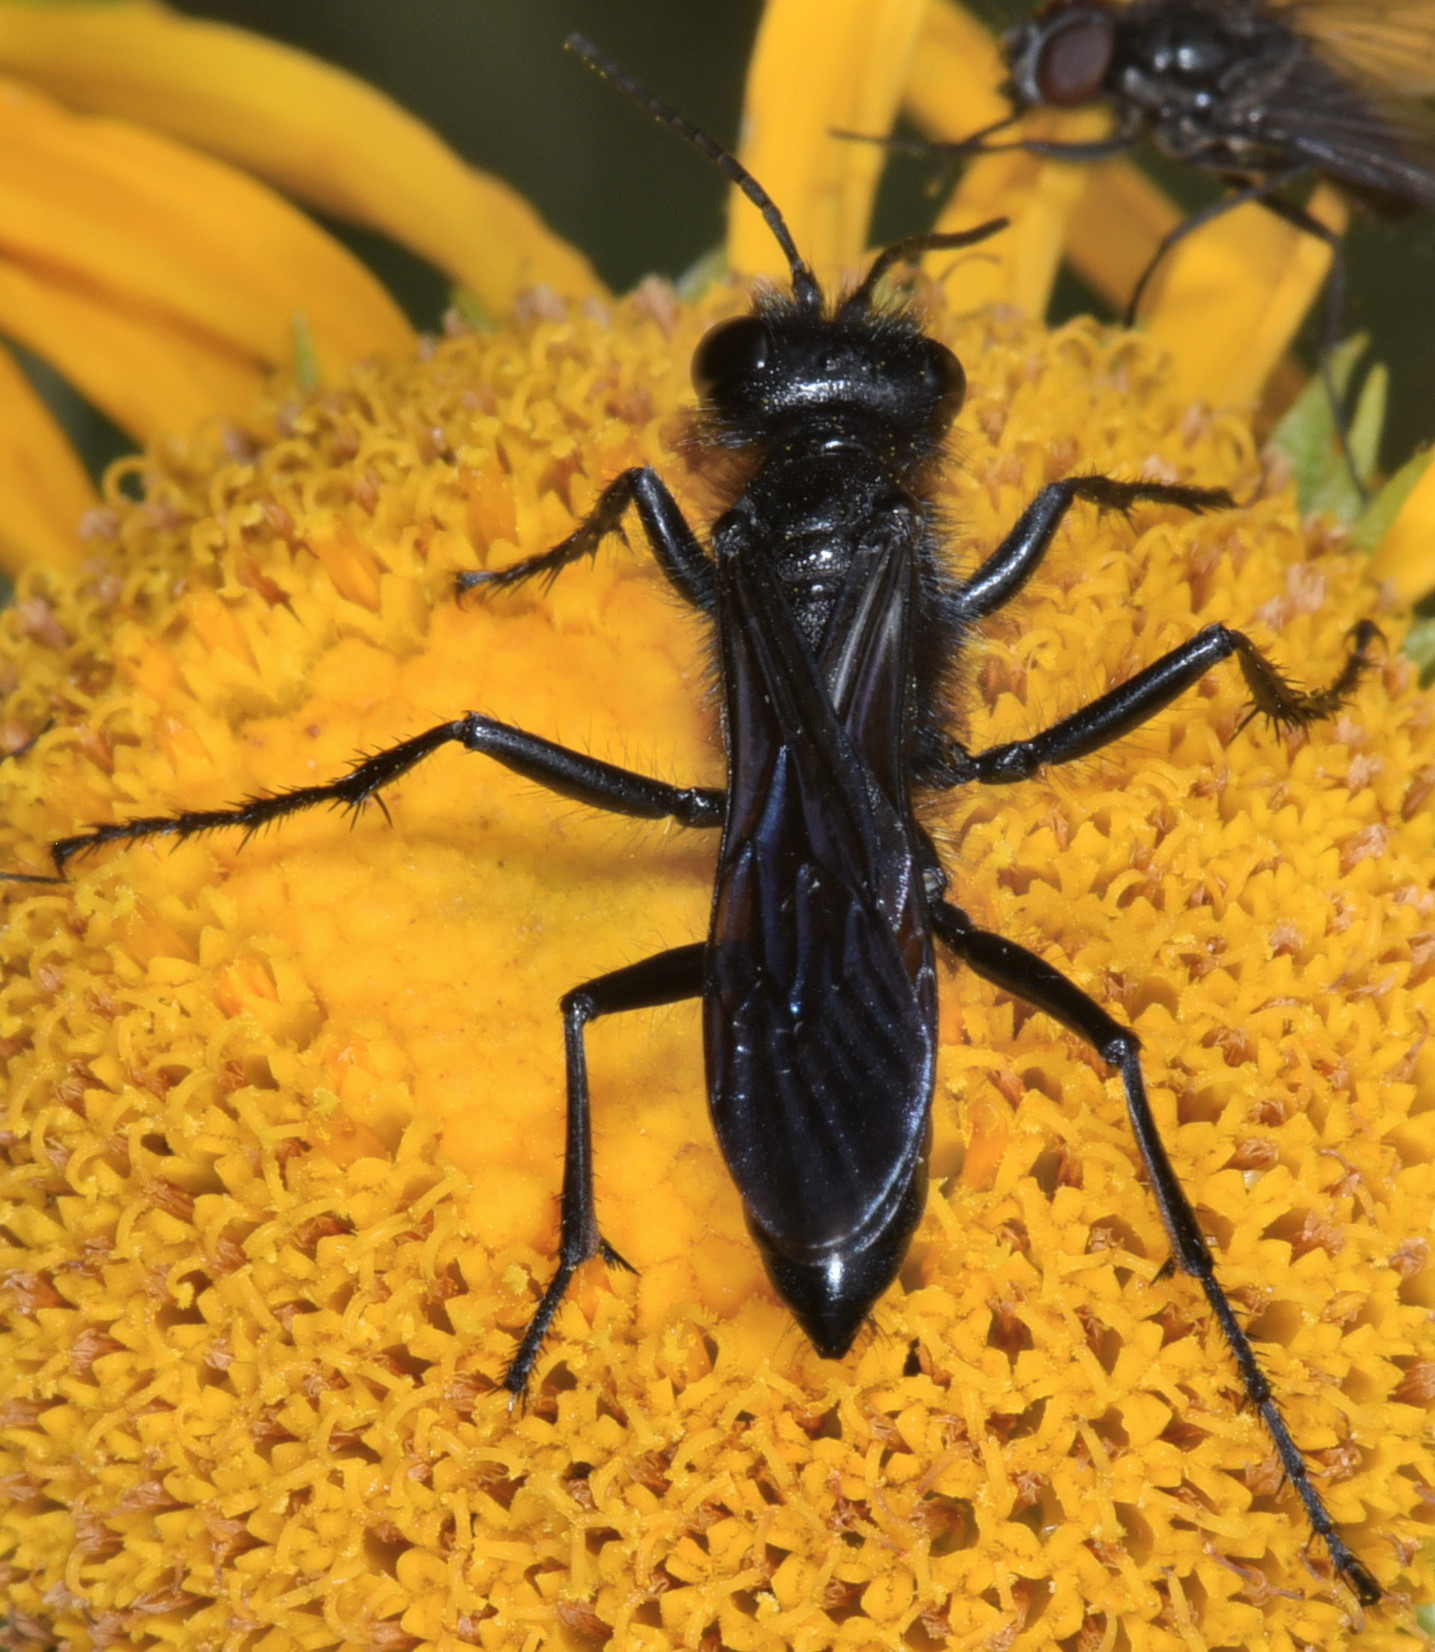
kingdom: Animalia
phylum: Arthropoda
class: Insecta
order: Hymenoptera
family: Sphecidae
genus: Podalonia
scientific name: Podalonia
